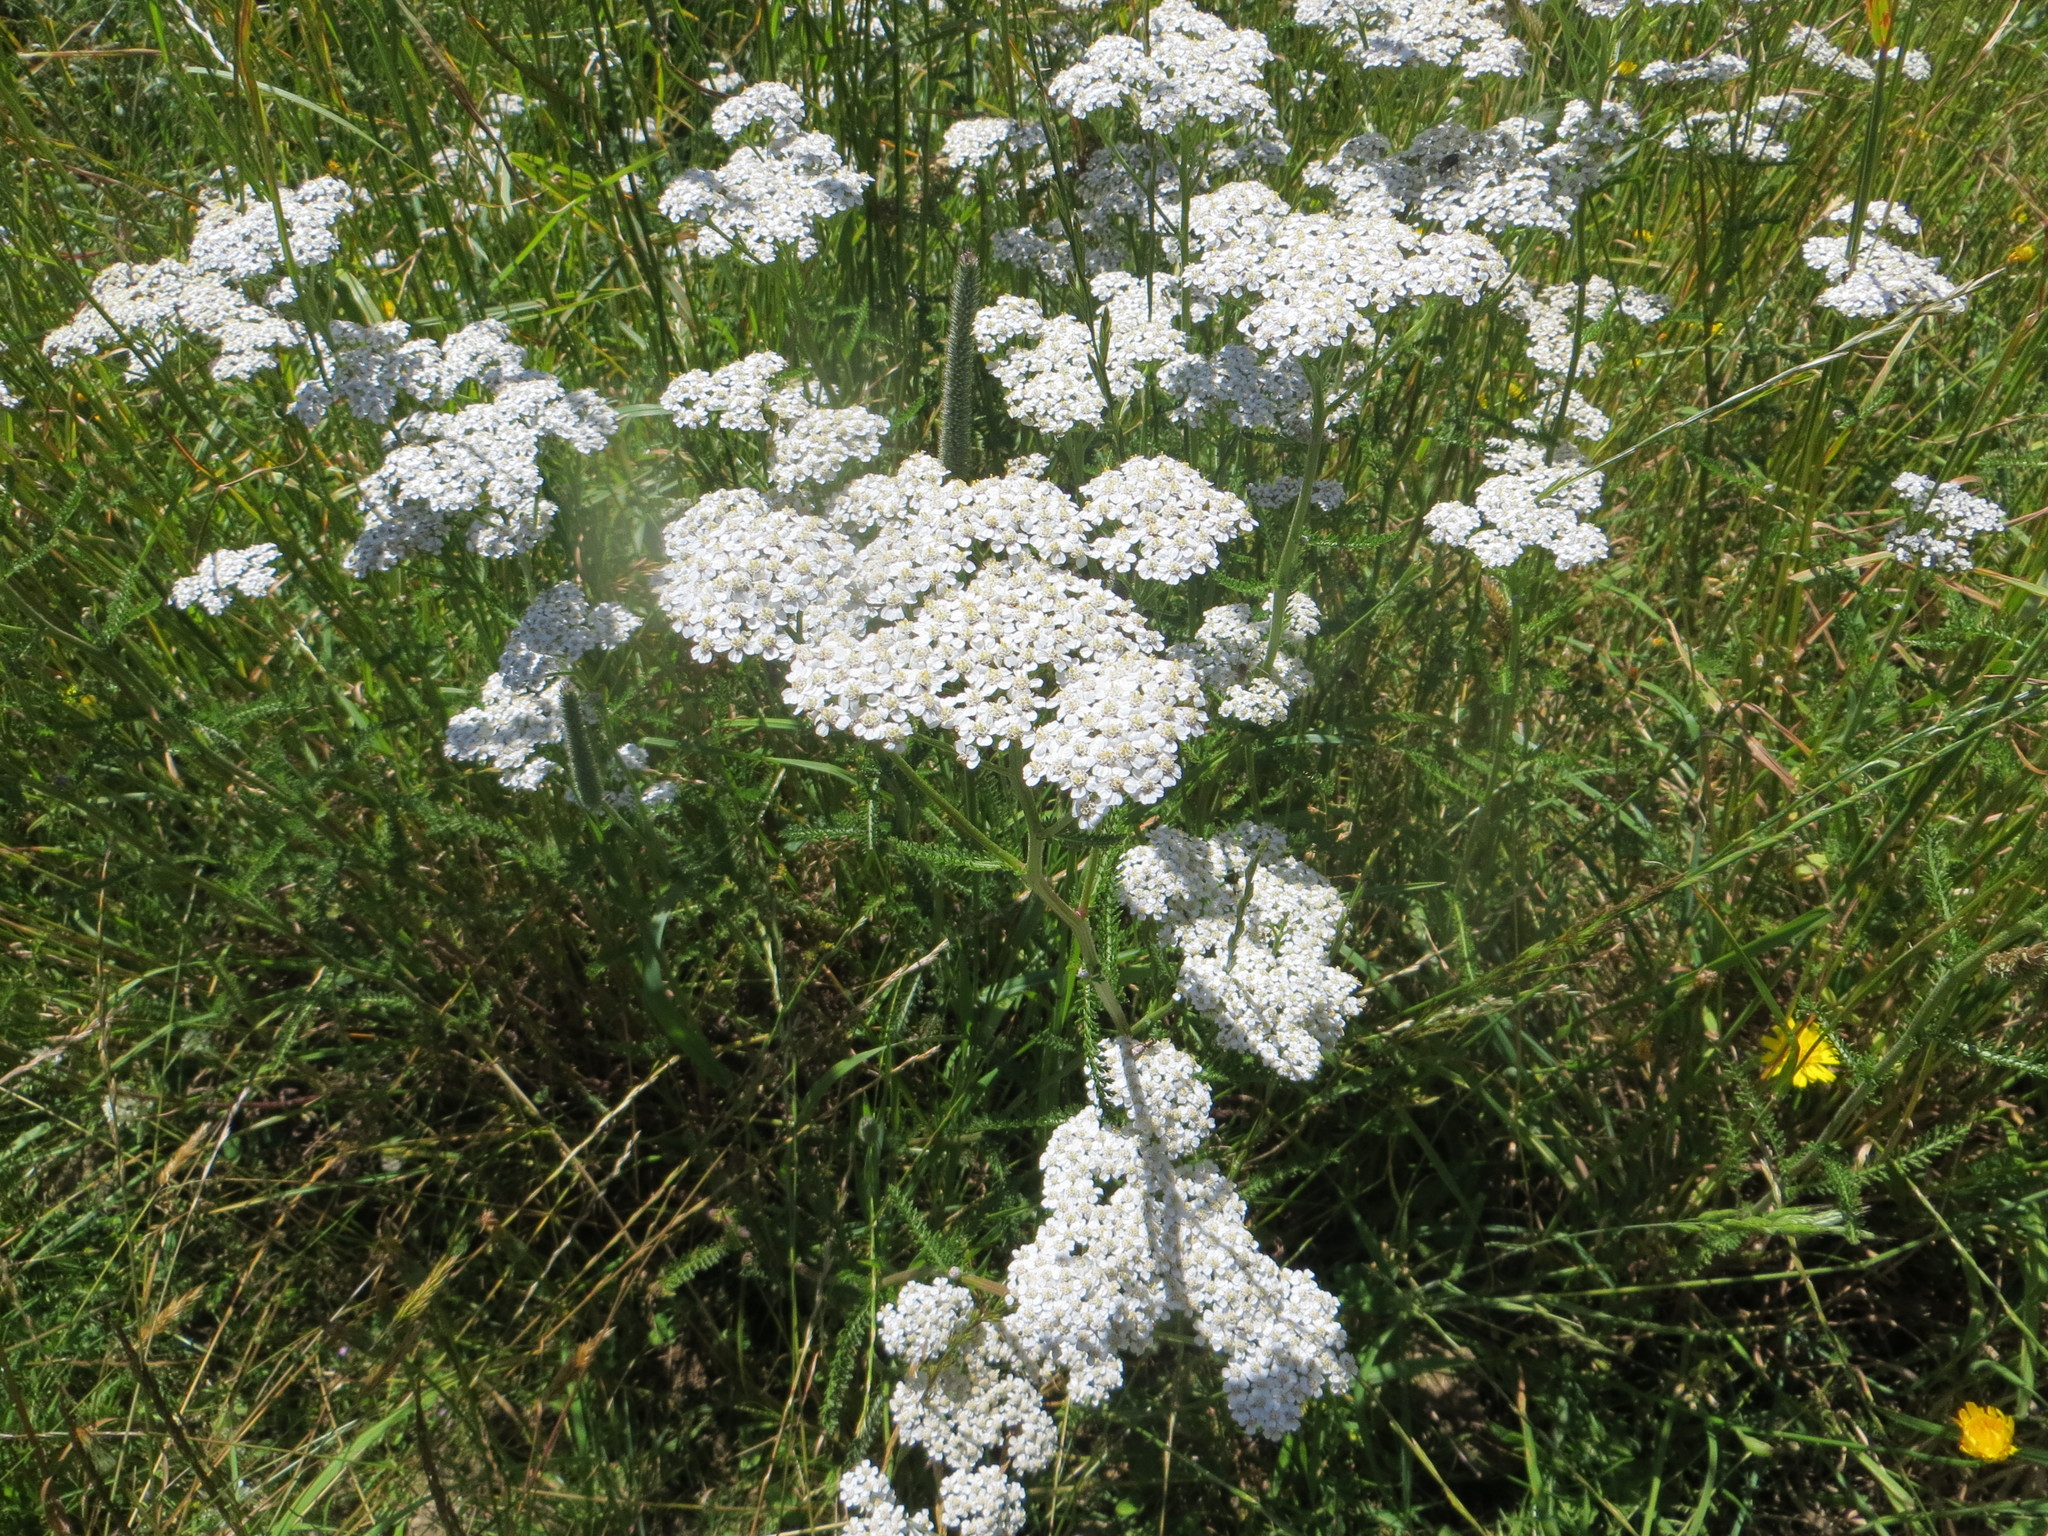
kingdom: Plantae
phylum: Tracheophyta
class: Magnoliopsida
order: Asterales
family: Asteraceae
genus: Achillea
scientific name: Achillea millefolium
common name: Yarrow
